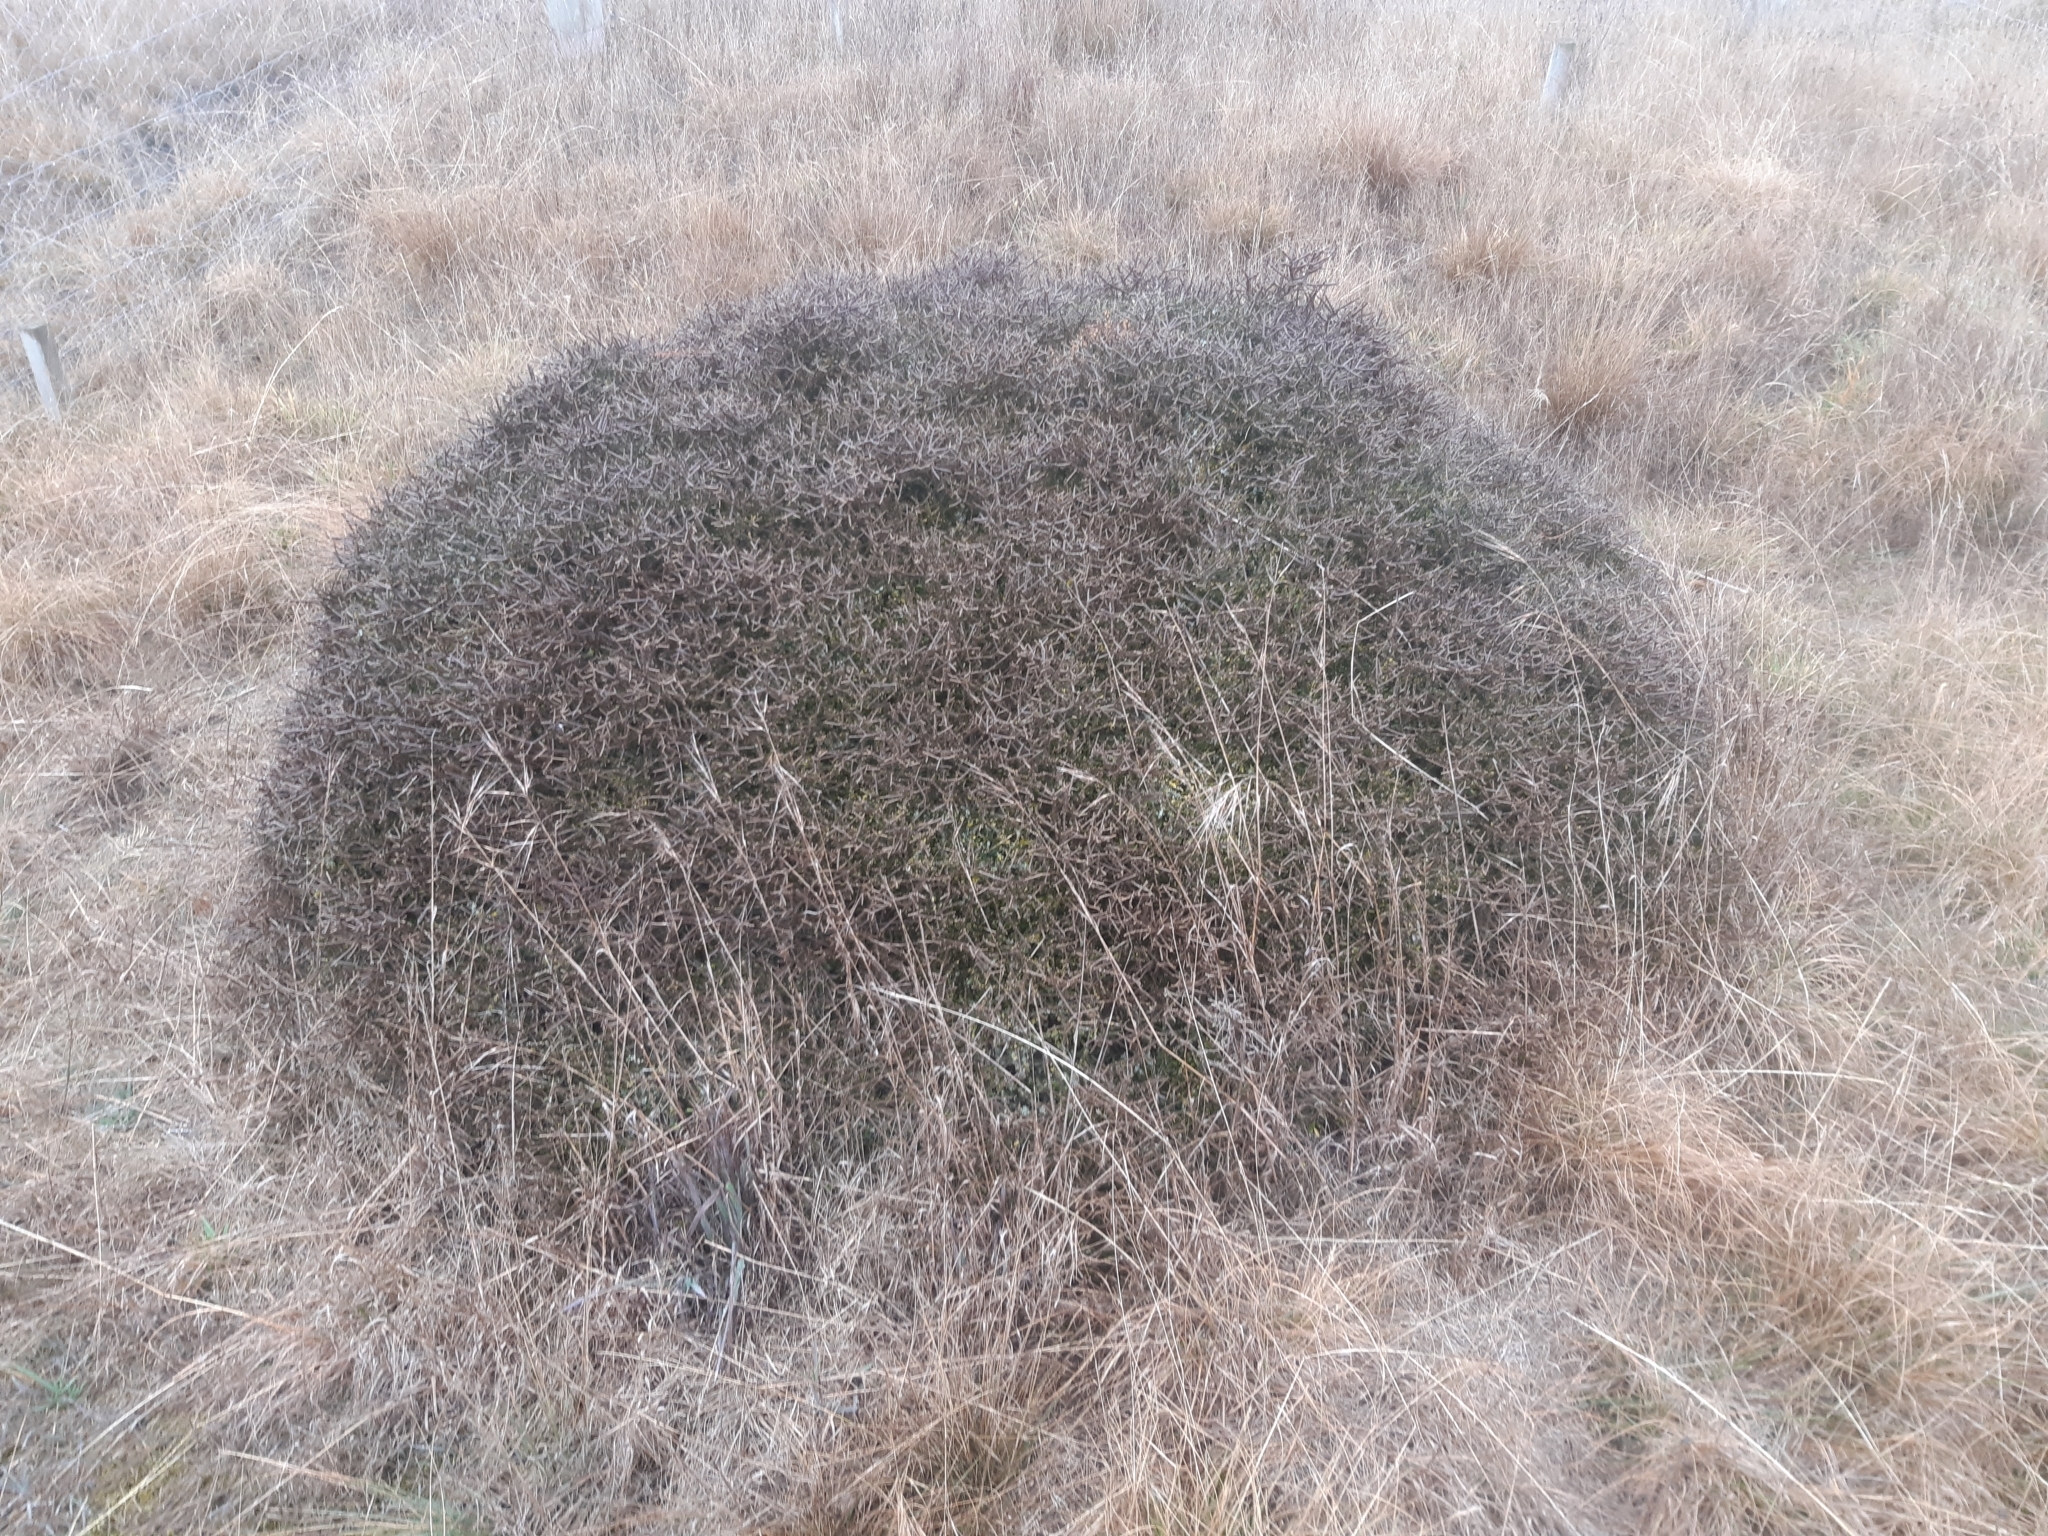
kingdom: Plantae
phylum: Tracheophyta
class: Magnoliopsida
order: Malpighiales
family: Violaceae
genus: Melicytus
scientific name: Melicytus alpinus
